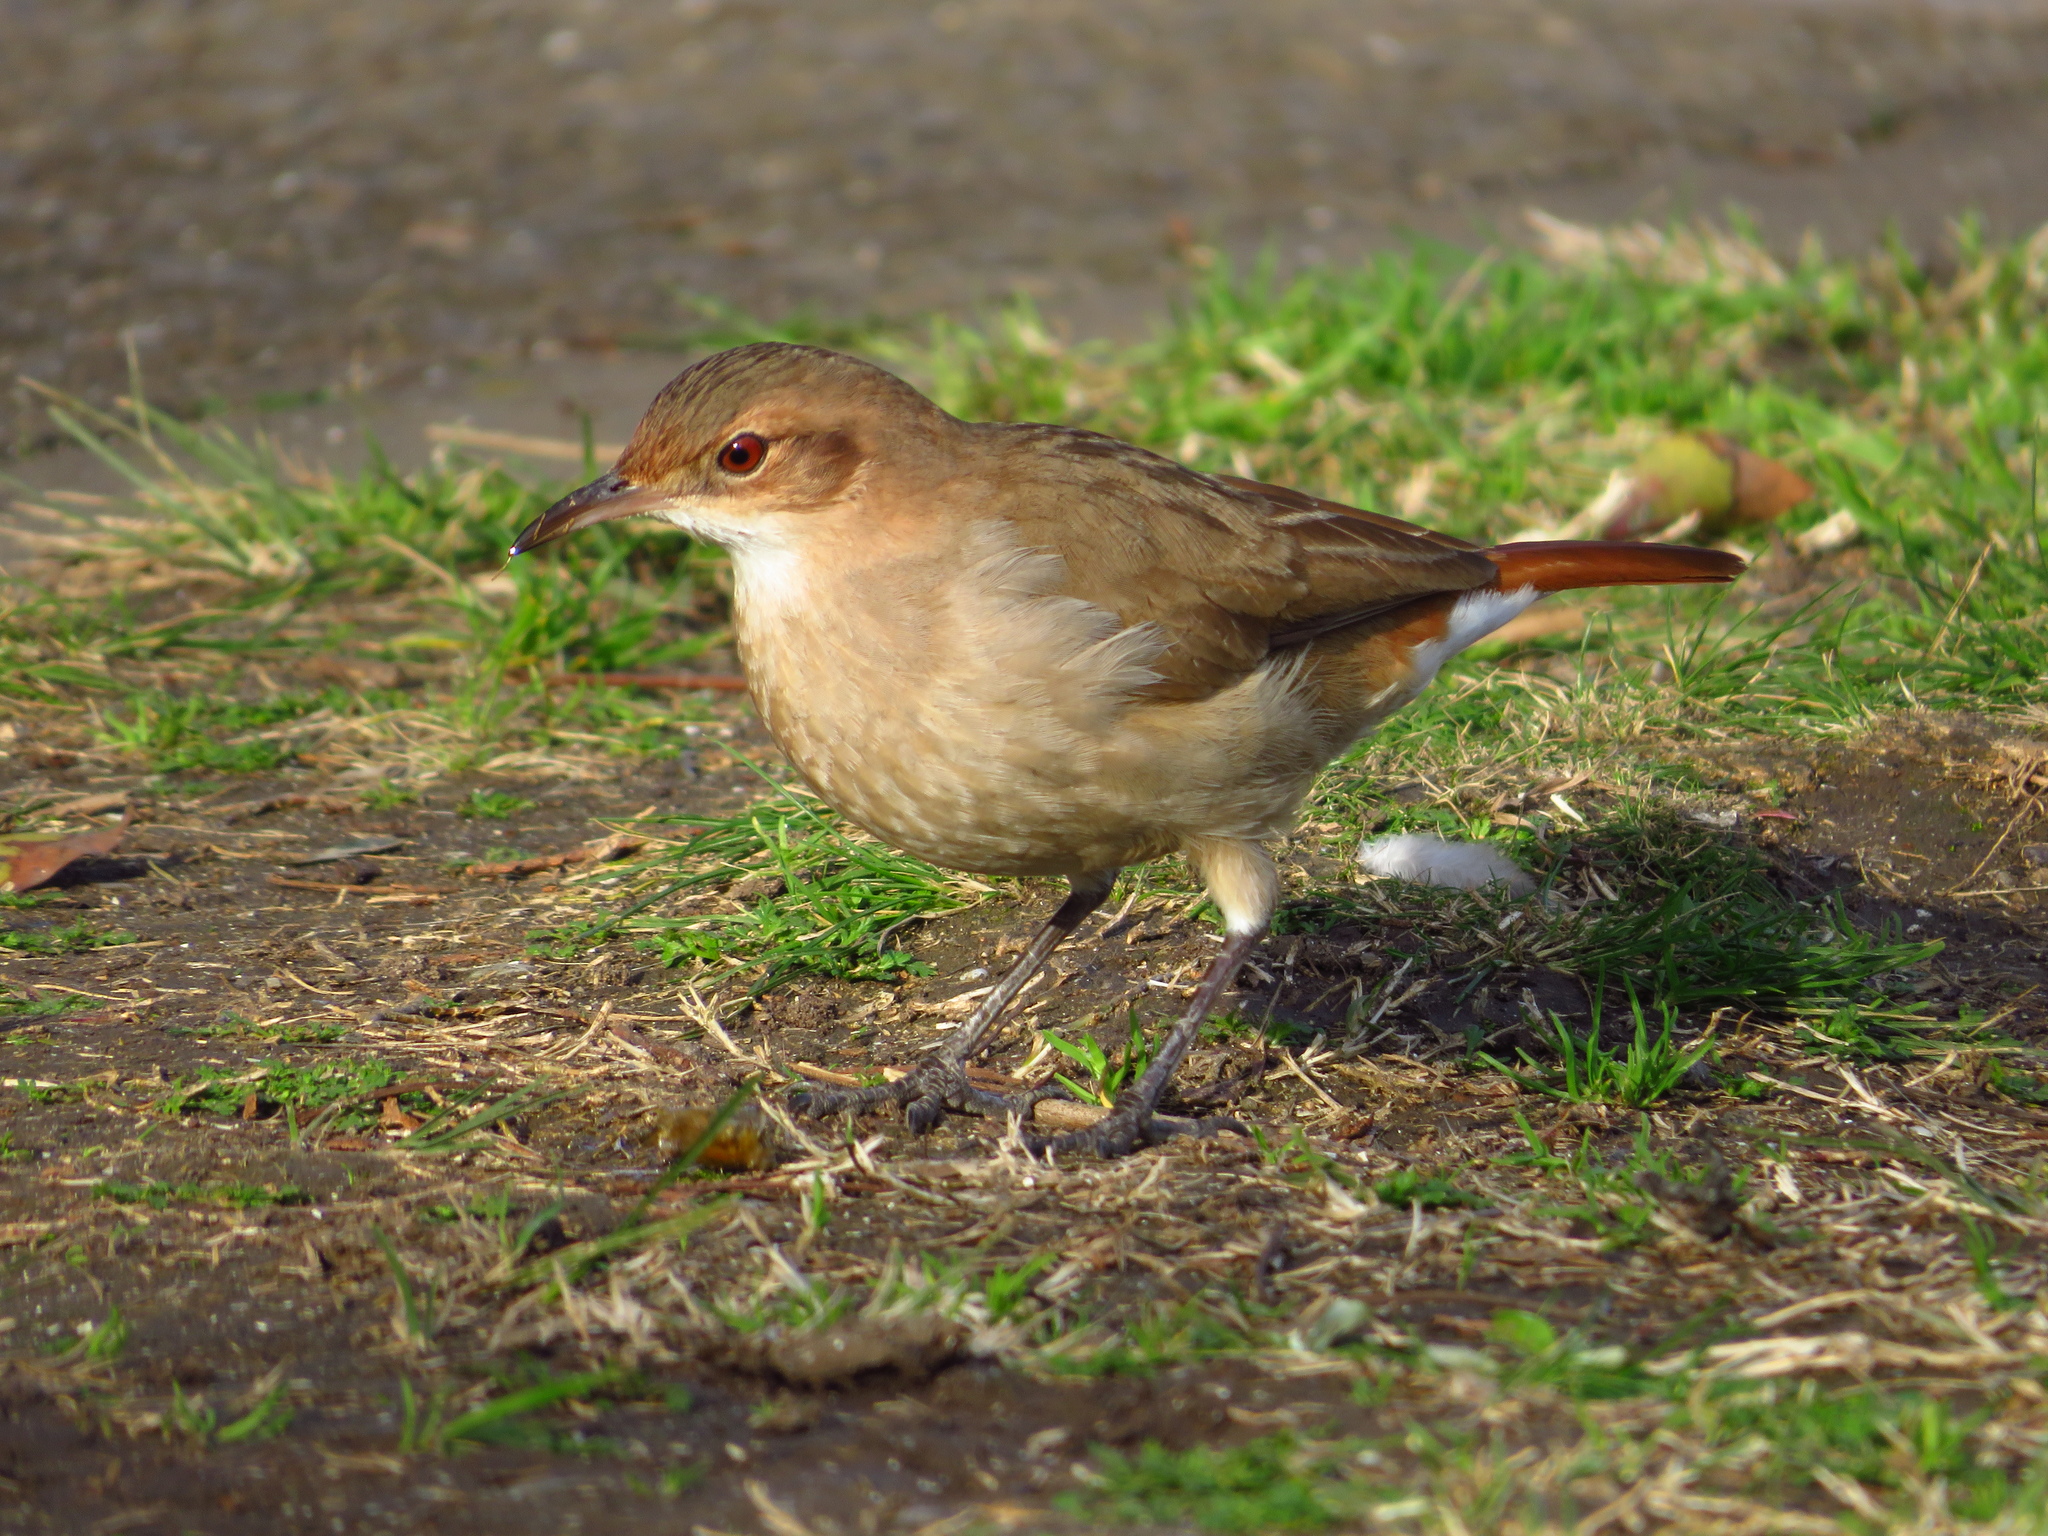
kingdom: Animalia
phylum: Chordata
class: Aves
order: Passeriformes
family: Furnariidae
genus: Furnarius
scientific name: Furnarius rufus
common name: Rufous hornero
